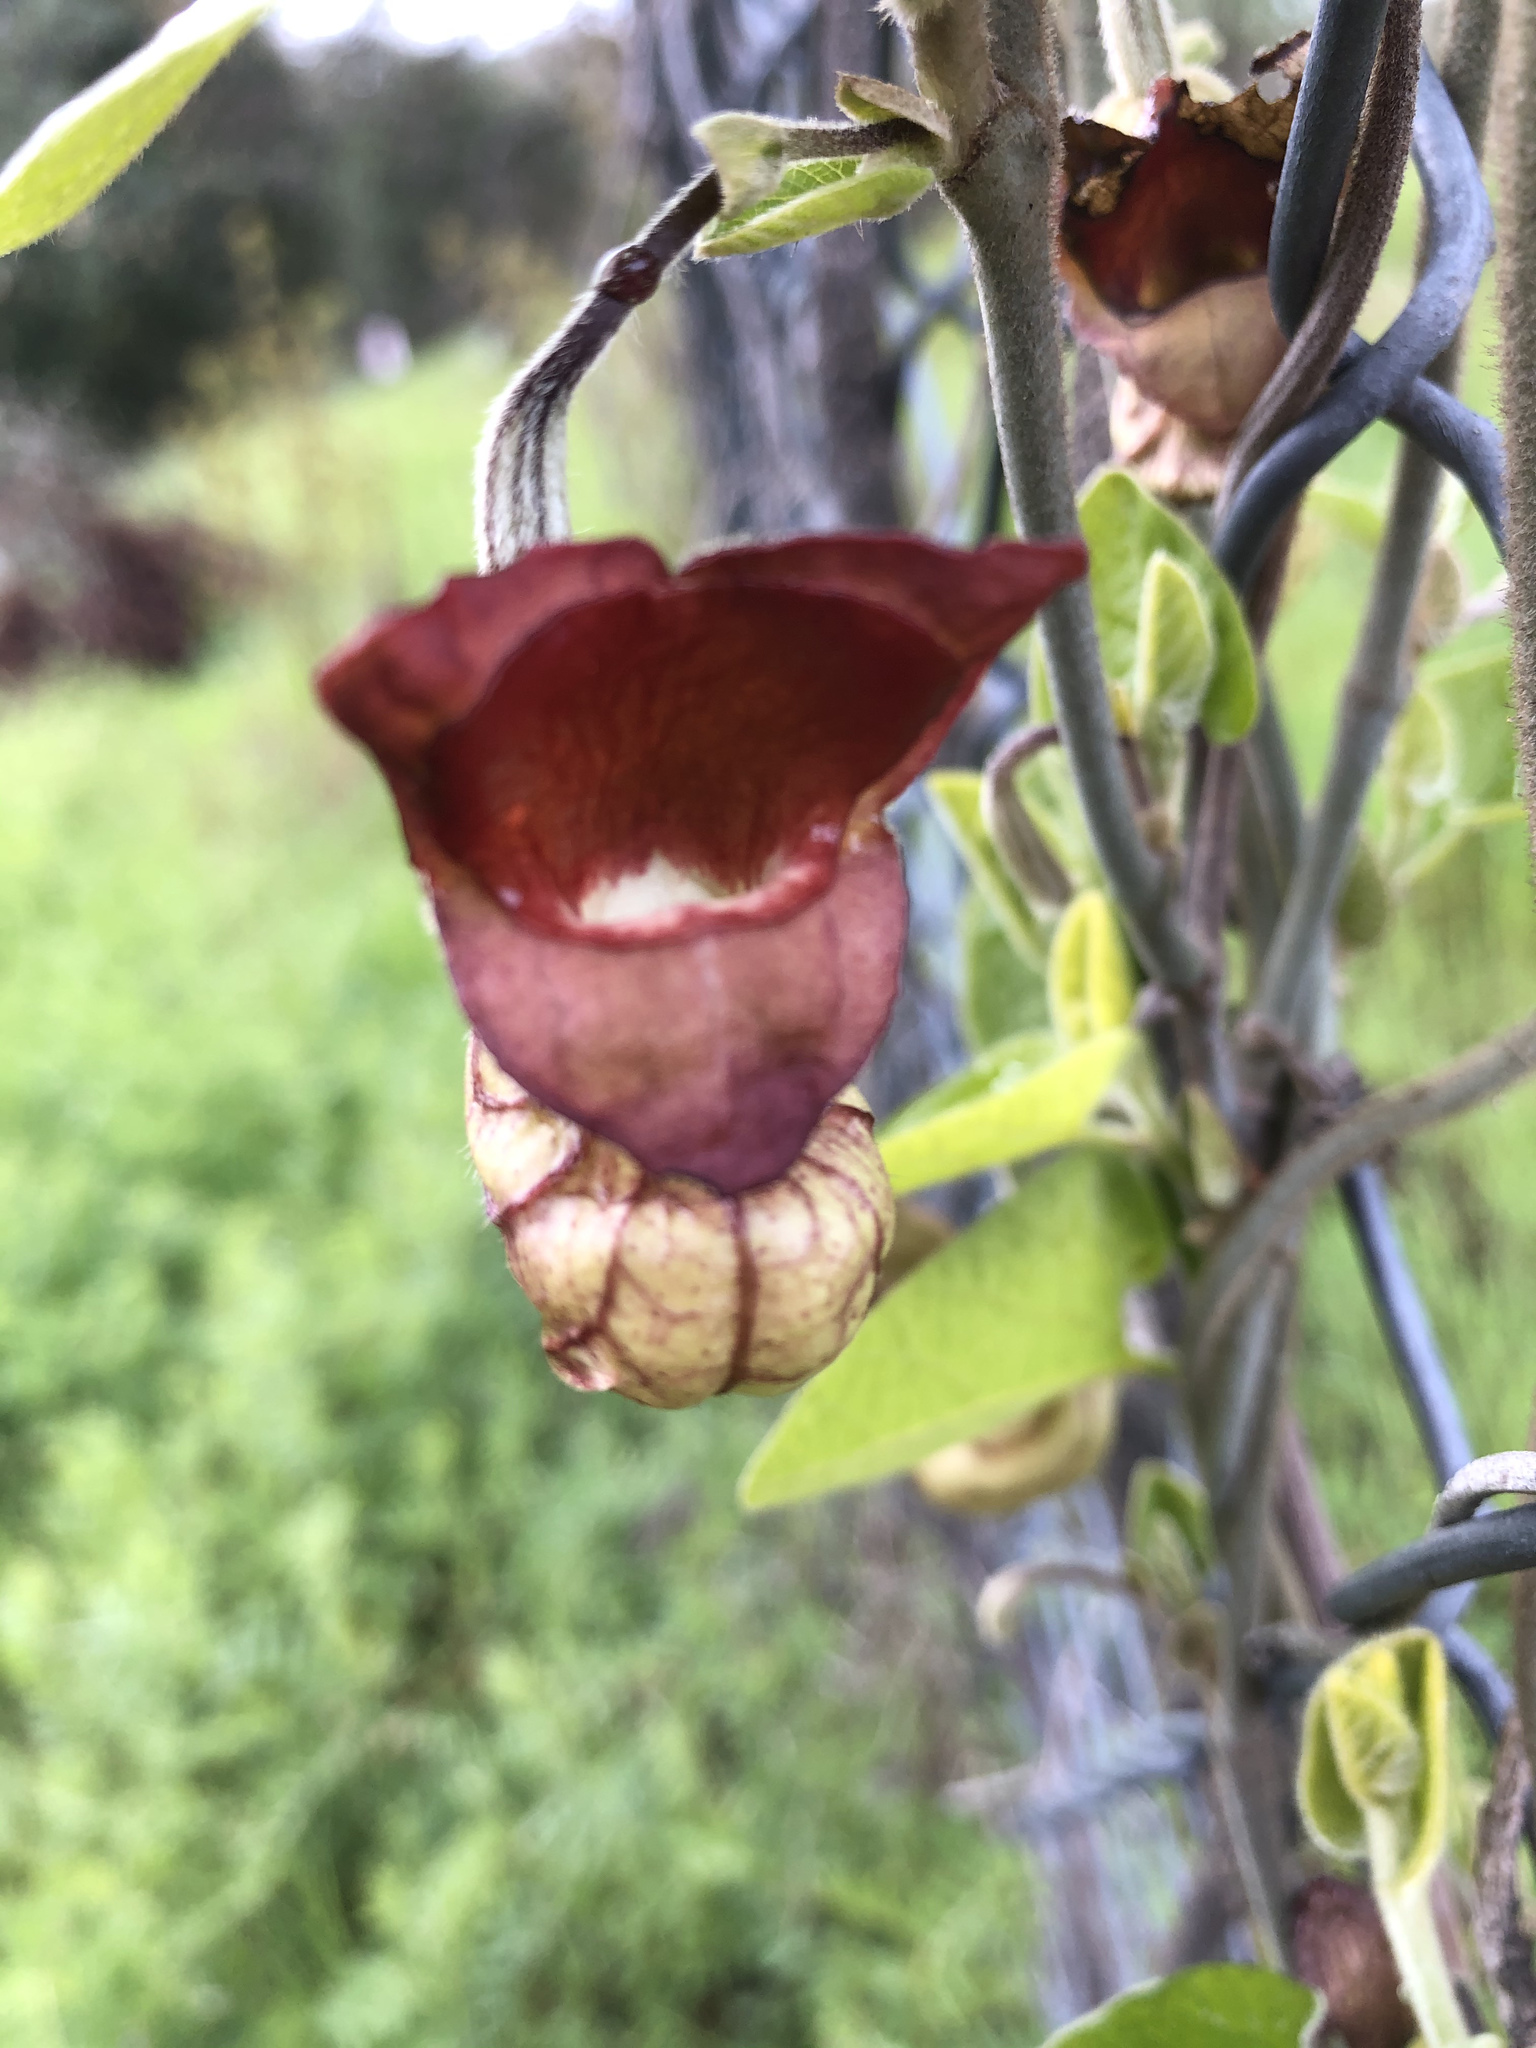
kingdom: Plantae
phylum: Tracheophyta
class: Magnoliopsida
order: Piperales
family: Aristolochiaceae
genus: Isotrema
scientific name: Isotrema californicum
